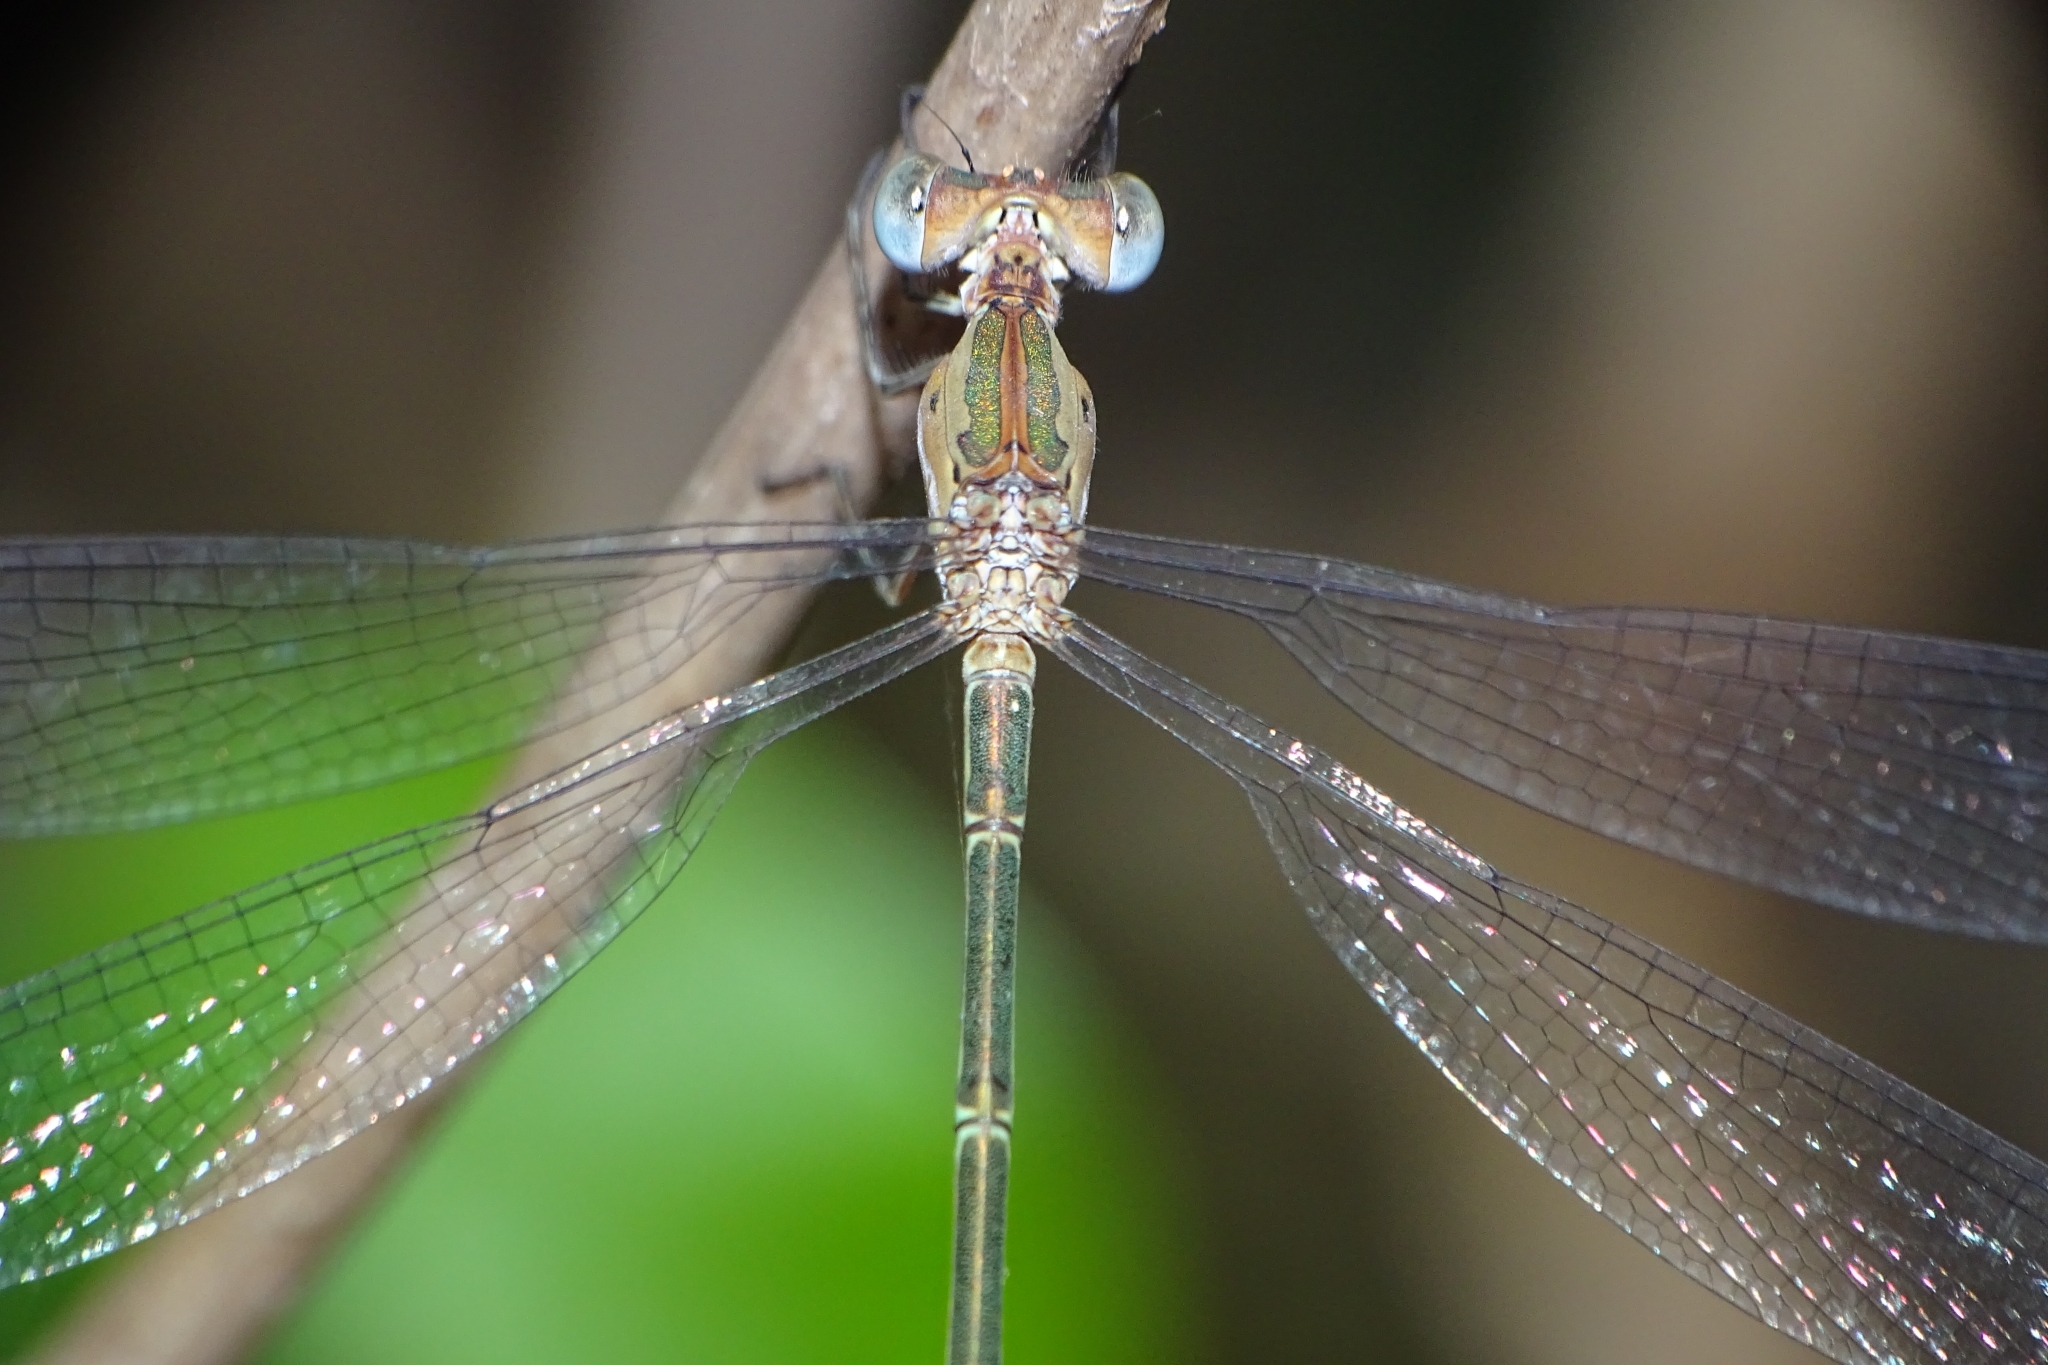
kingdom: Animalia
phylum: Arthropoda
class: Insecta
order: Odonata
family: Lestidae
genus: Lestes
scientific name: Lestes elatus
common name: Emerald spreadwing
